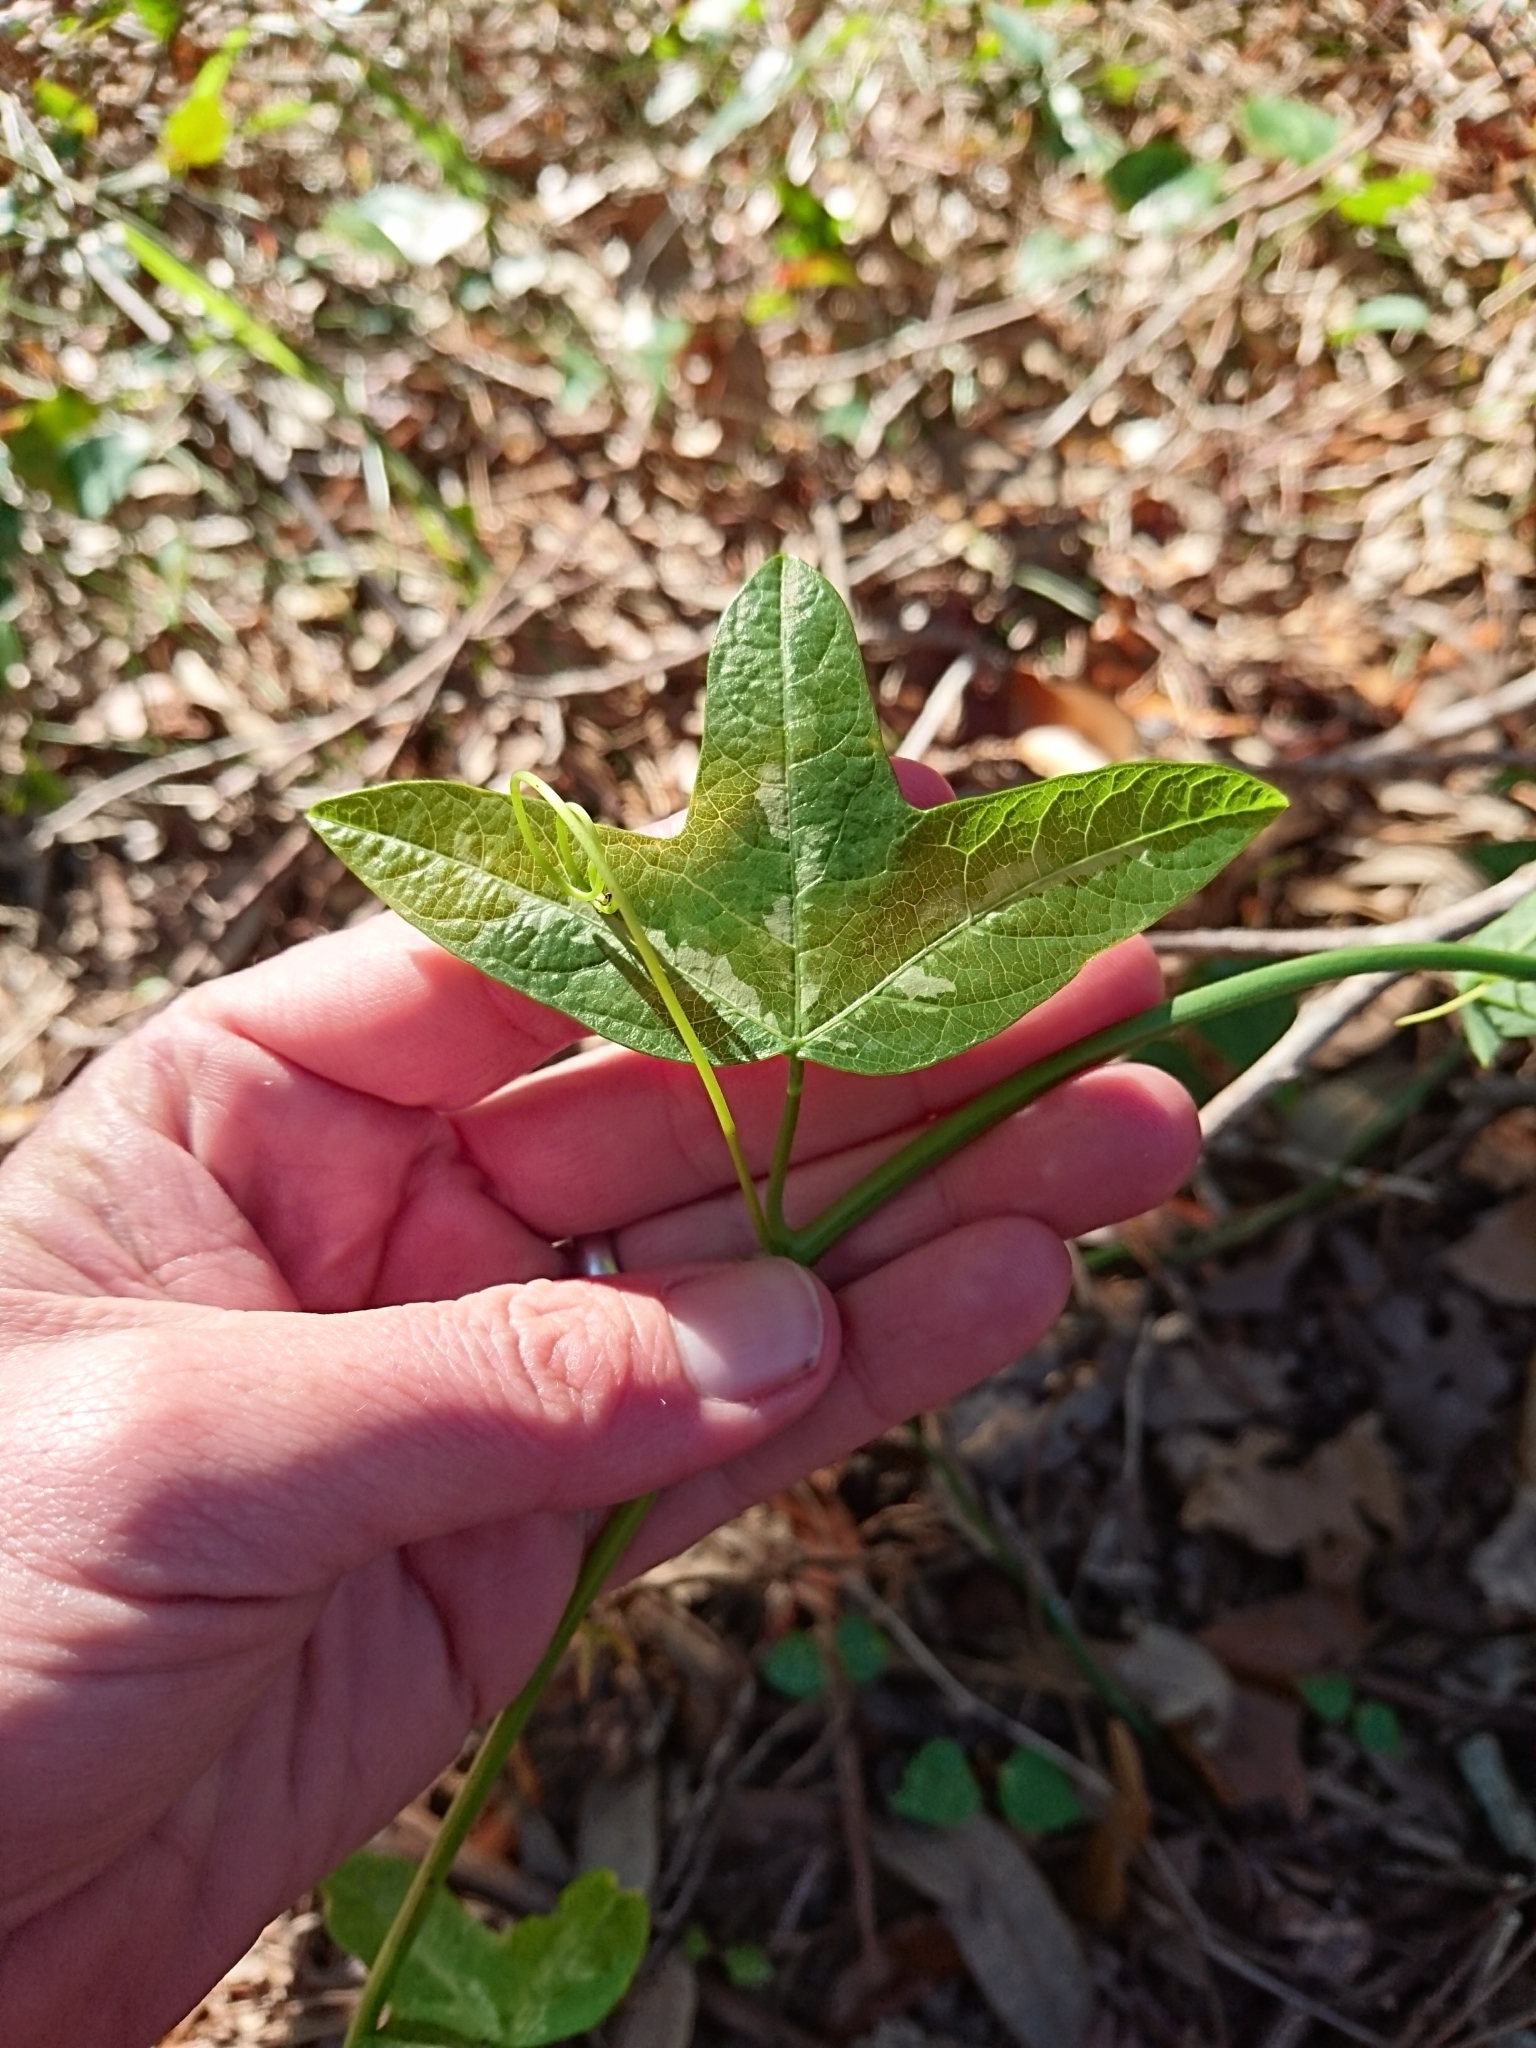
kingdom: Plantae
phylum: Tracheophyta
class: Magnoliopsida
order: Malpighiales
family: Passifloraceae
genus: Passiflora
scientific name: Passiflora lutea
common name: Yellow passionflower
